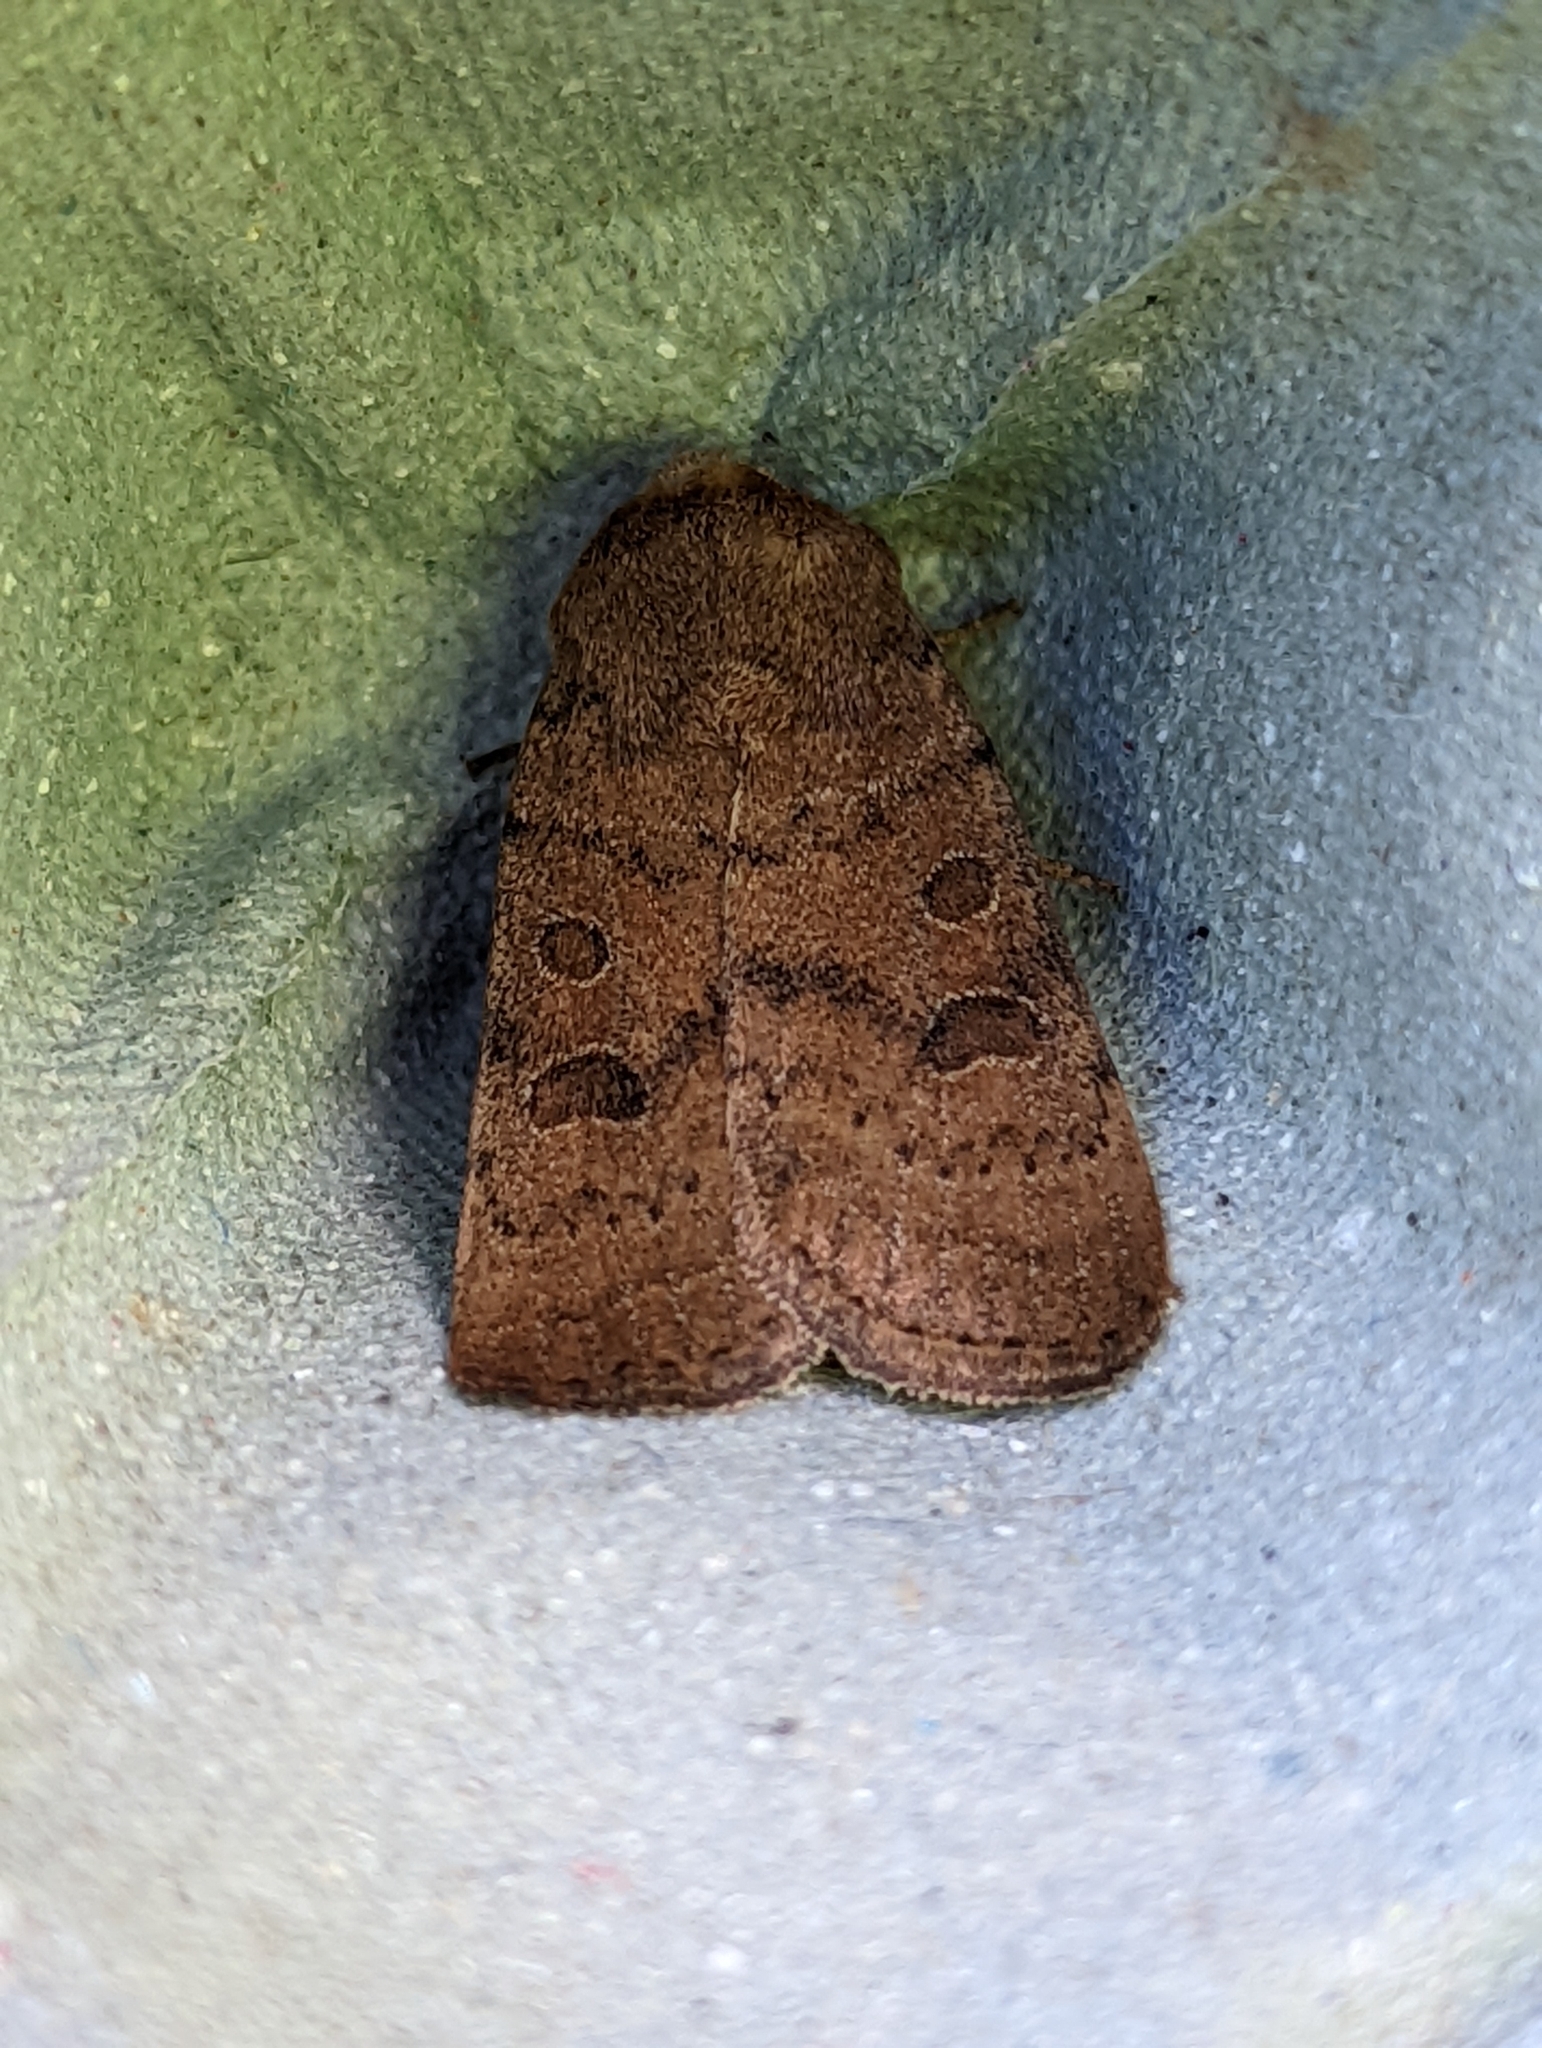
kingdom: Animalia
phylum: Arthropoda
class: Insecta
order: Lepidoptera
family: Noctuidae
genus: Hoplodrina
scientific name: Hoplodrina octogenaria
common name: Uncertain
